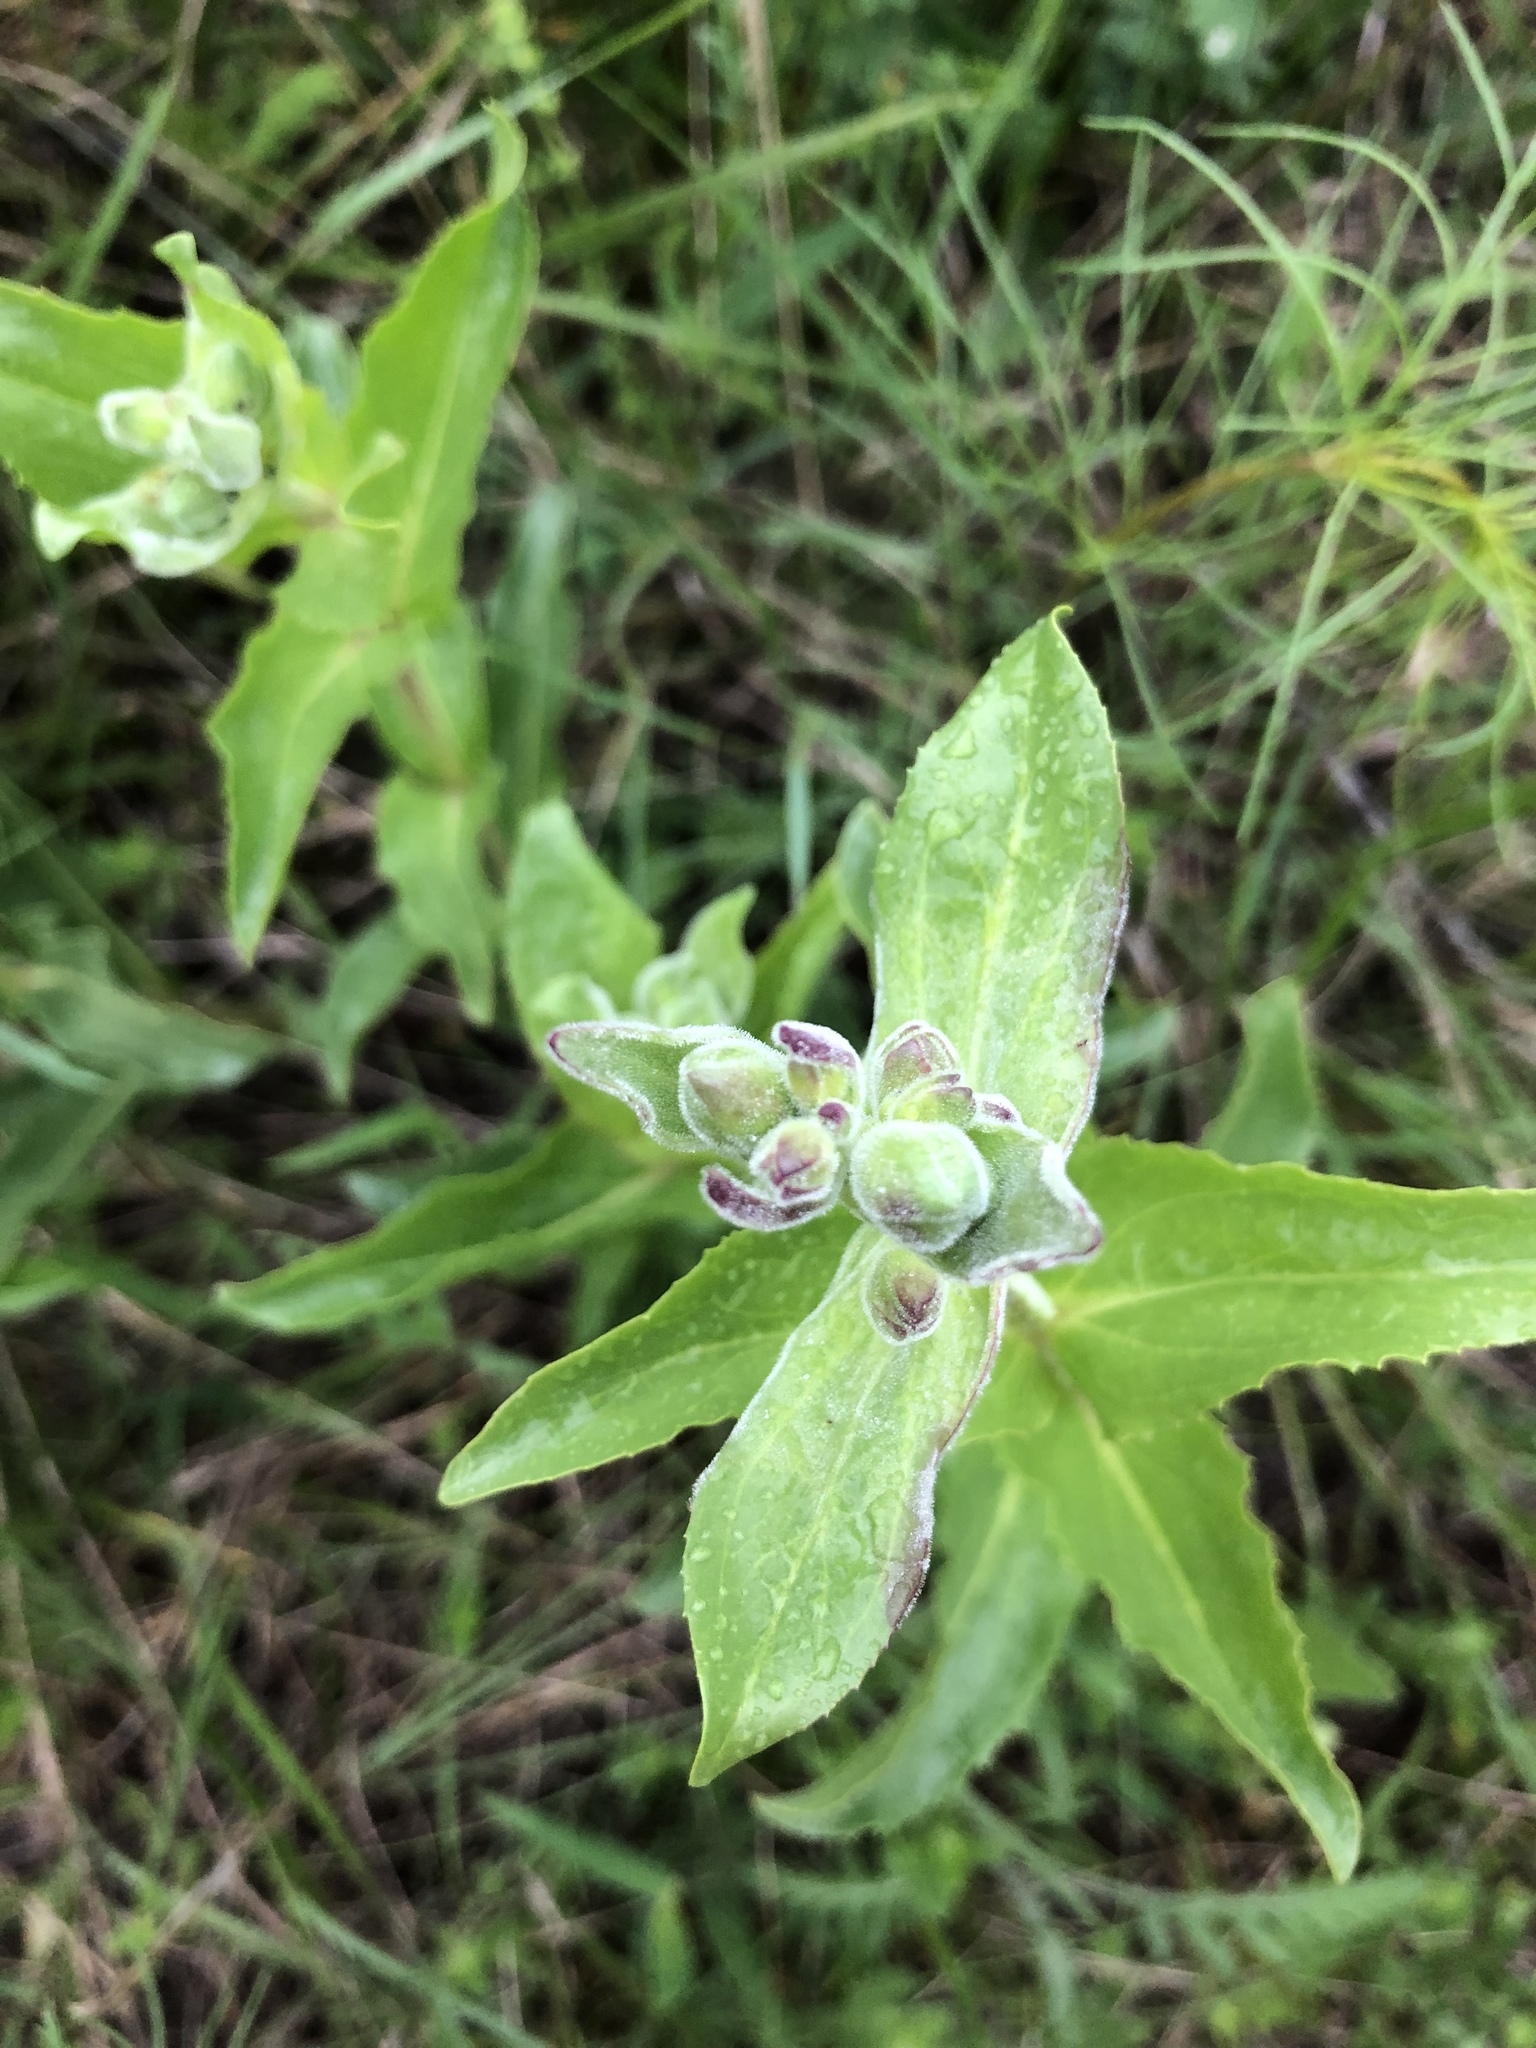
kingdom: Plantae
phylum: Tracheophyta
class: Magnoliopsida
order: Lamiales
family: Plantaginaceae
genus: Penstemon
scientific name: Penstemon cobaea
